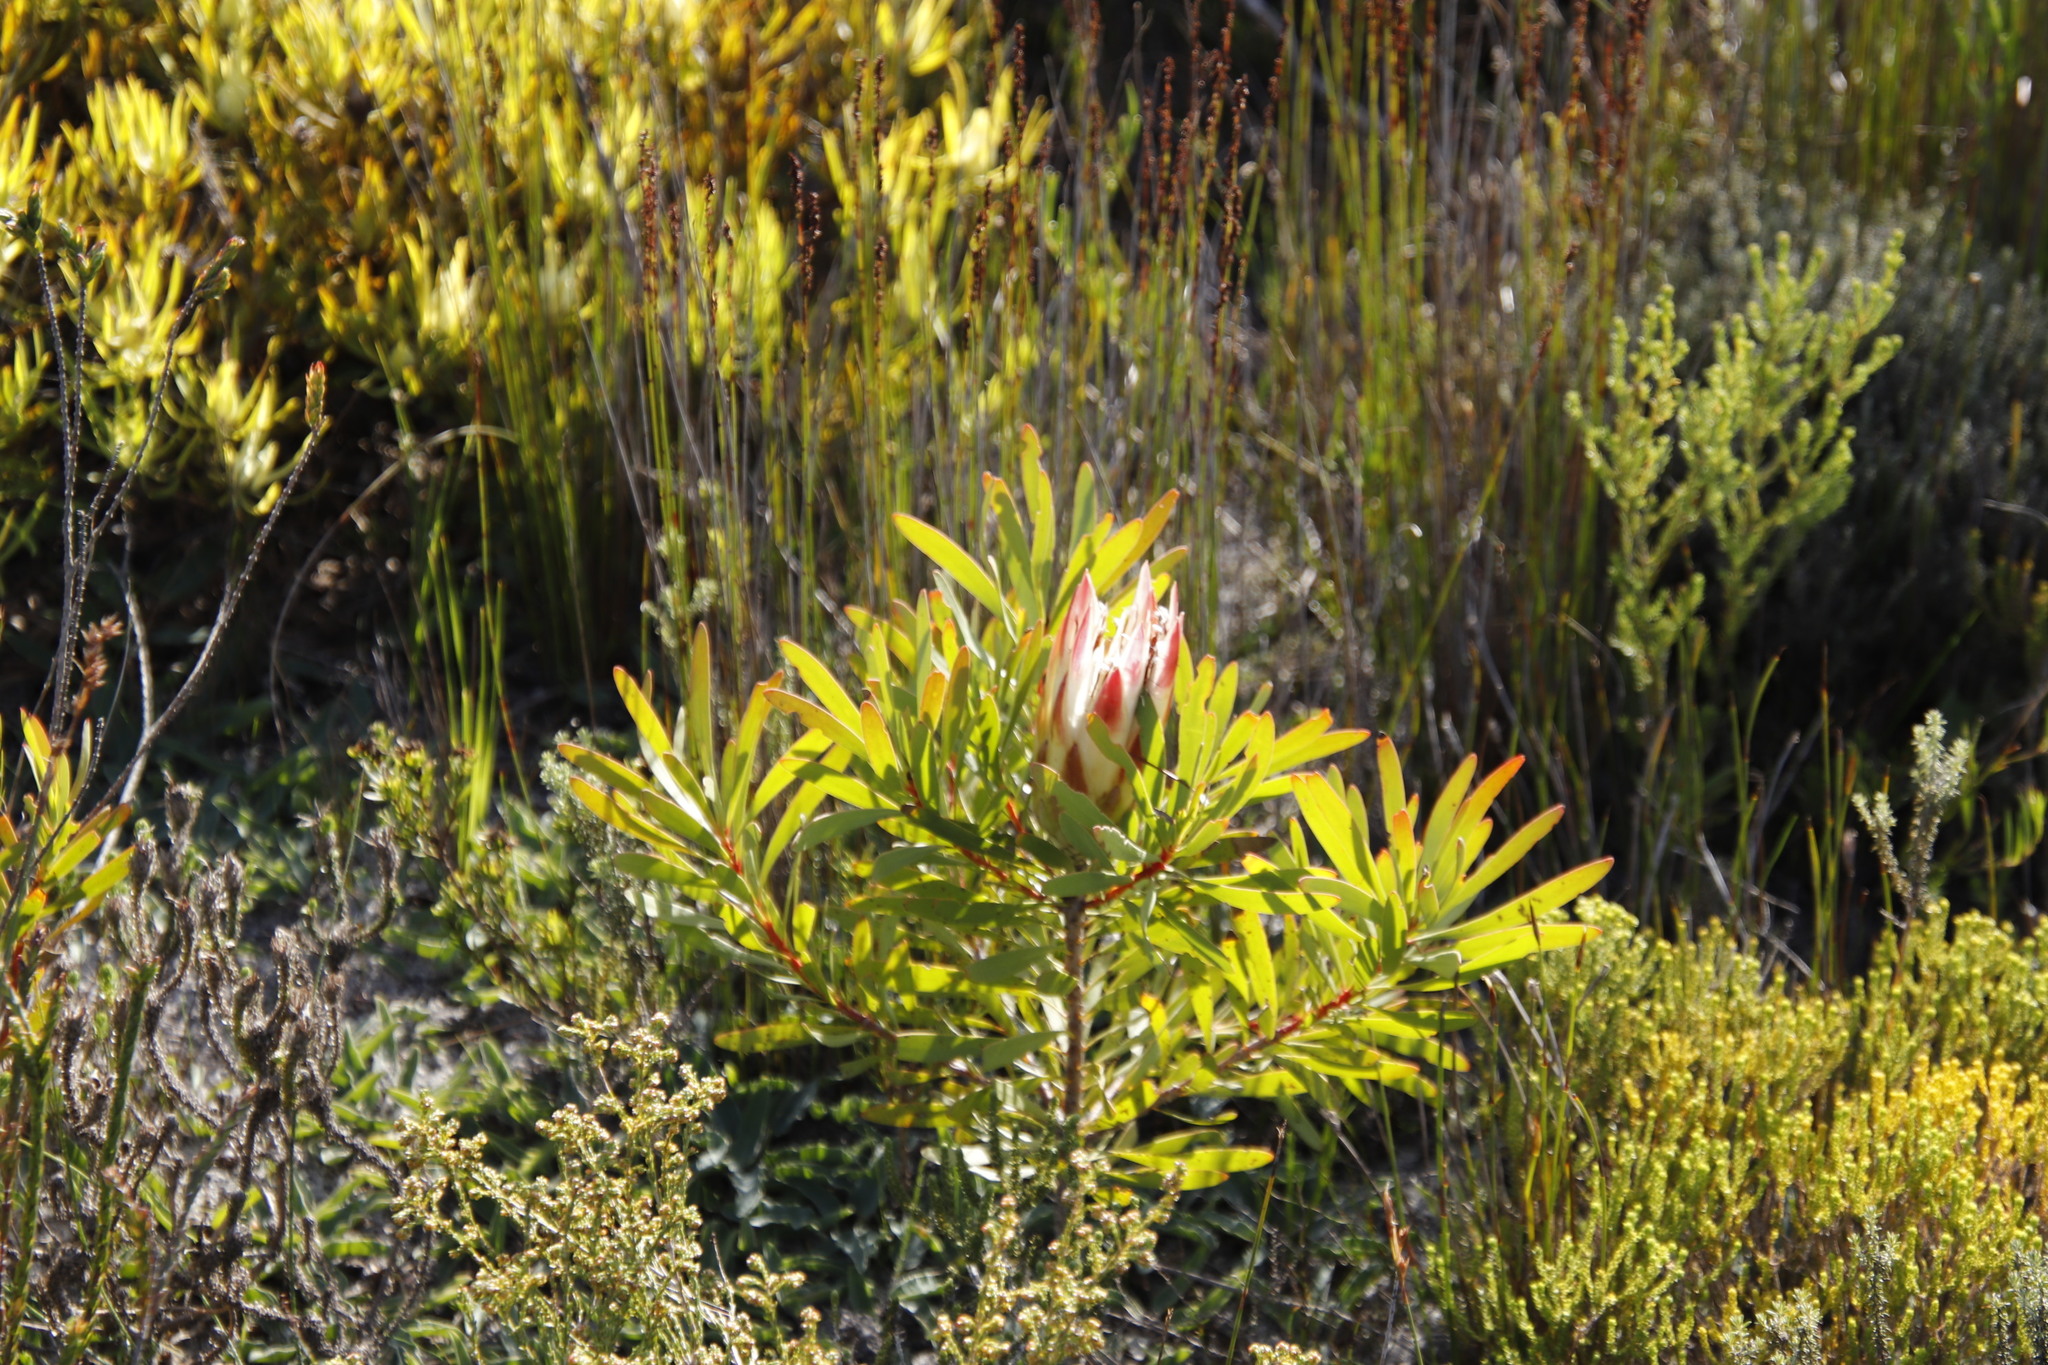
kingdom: Plantae
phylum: Tracheophyta
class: Magnoliopsida
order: Proteales
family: Proteaceae
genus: Protea
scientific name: Protea repens
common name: Sugarbush
